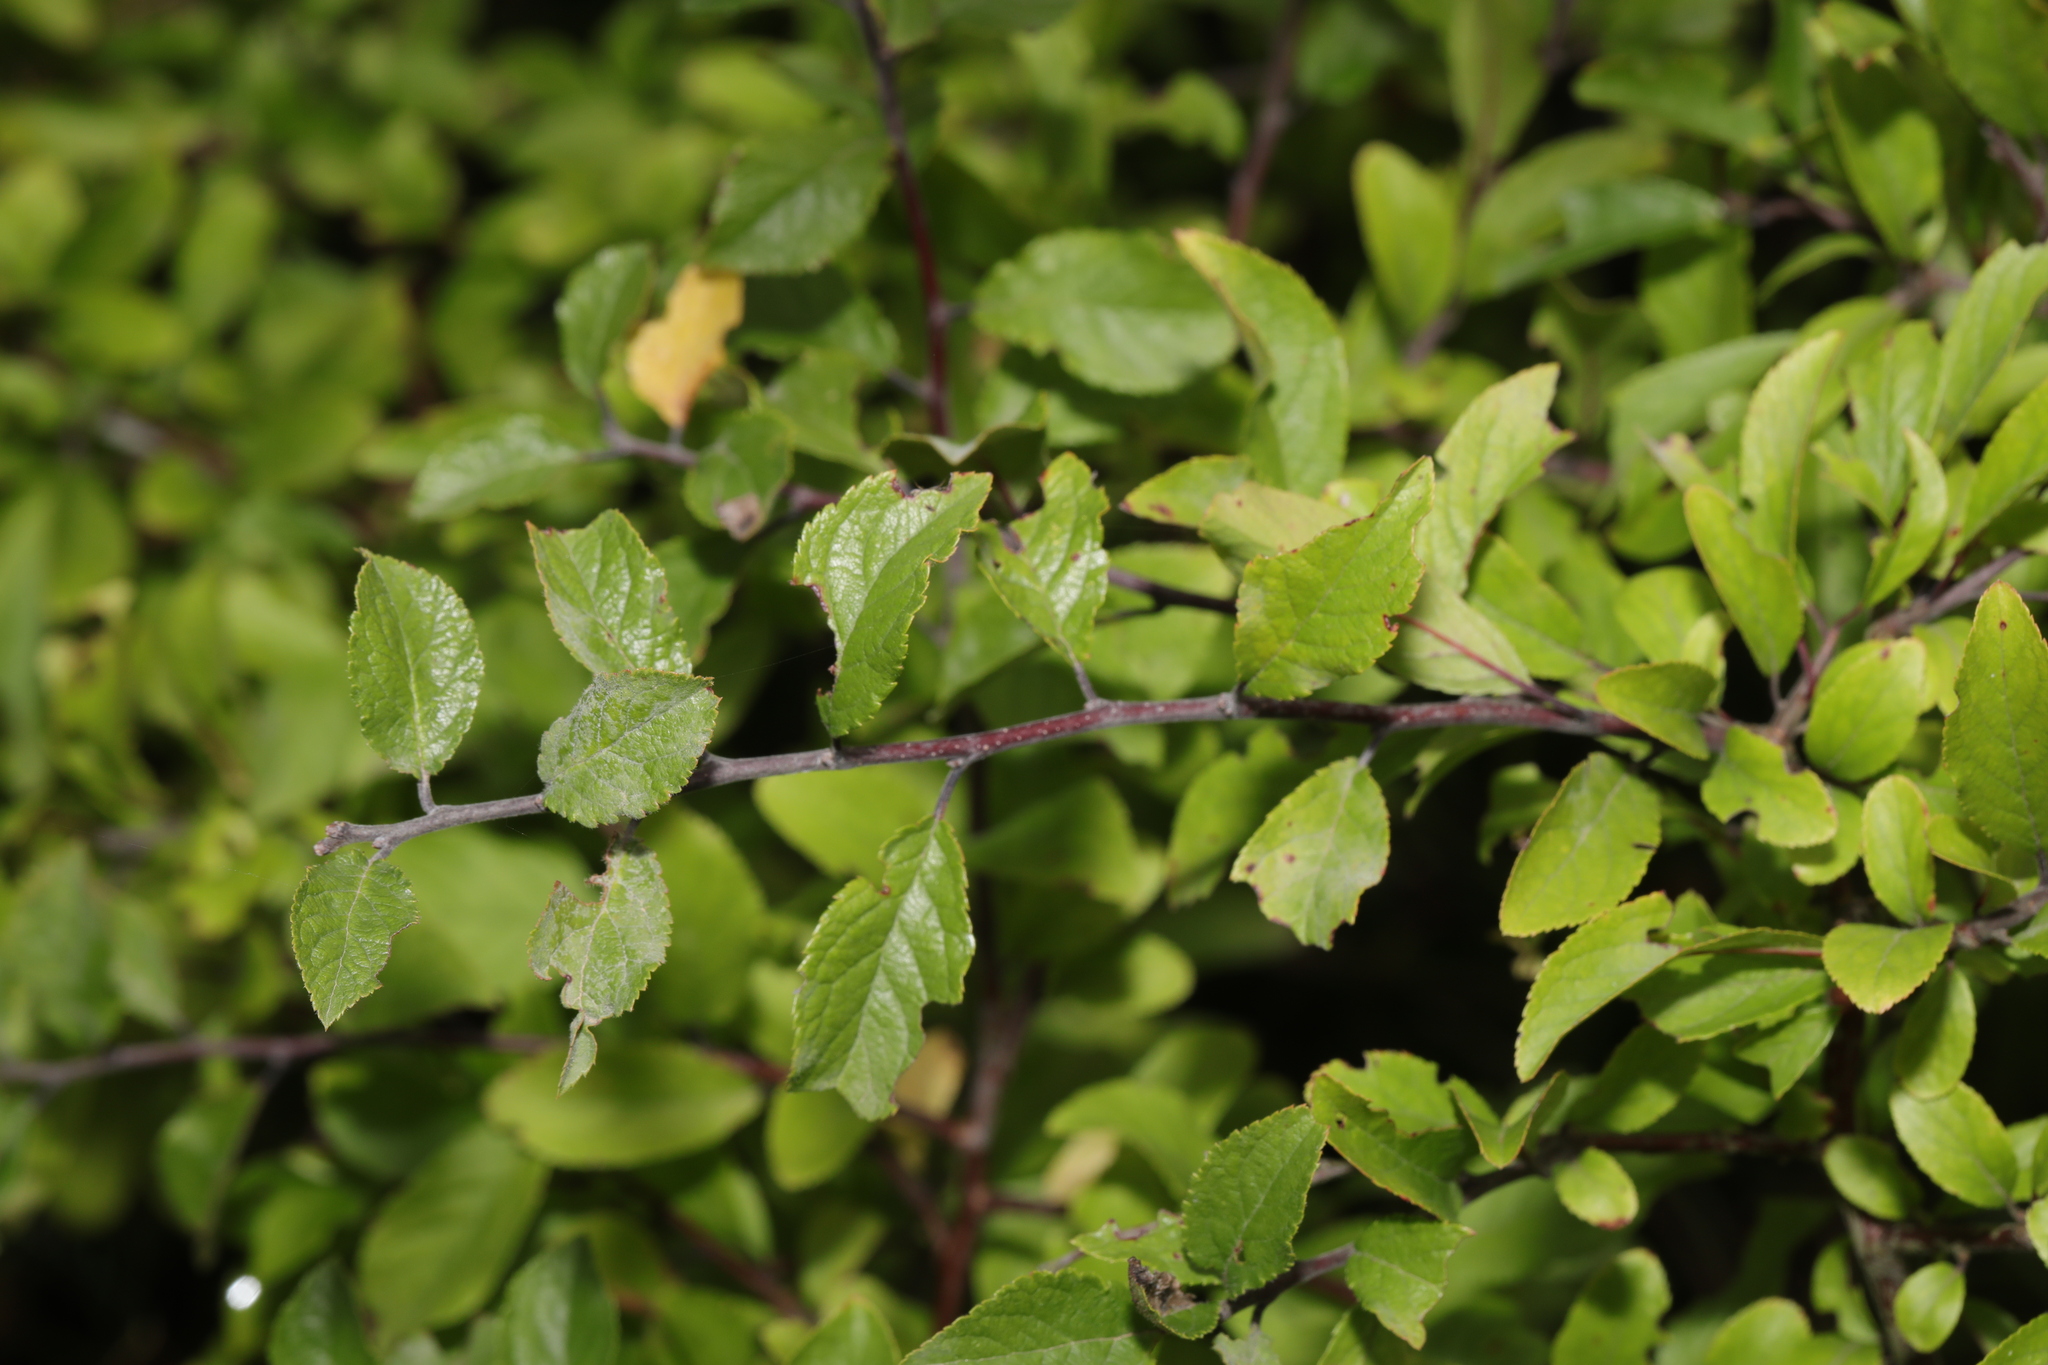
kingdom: Plantae
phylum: Tracheophyta
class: Magnoliopsida
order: Rosales
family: Rosaceae
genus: Prunus
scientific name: Prunus spinosa
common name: Blackthorn
